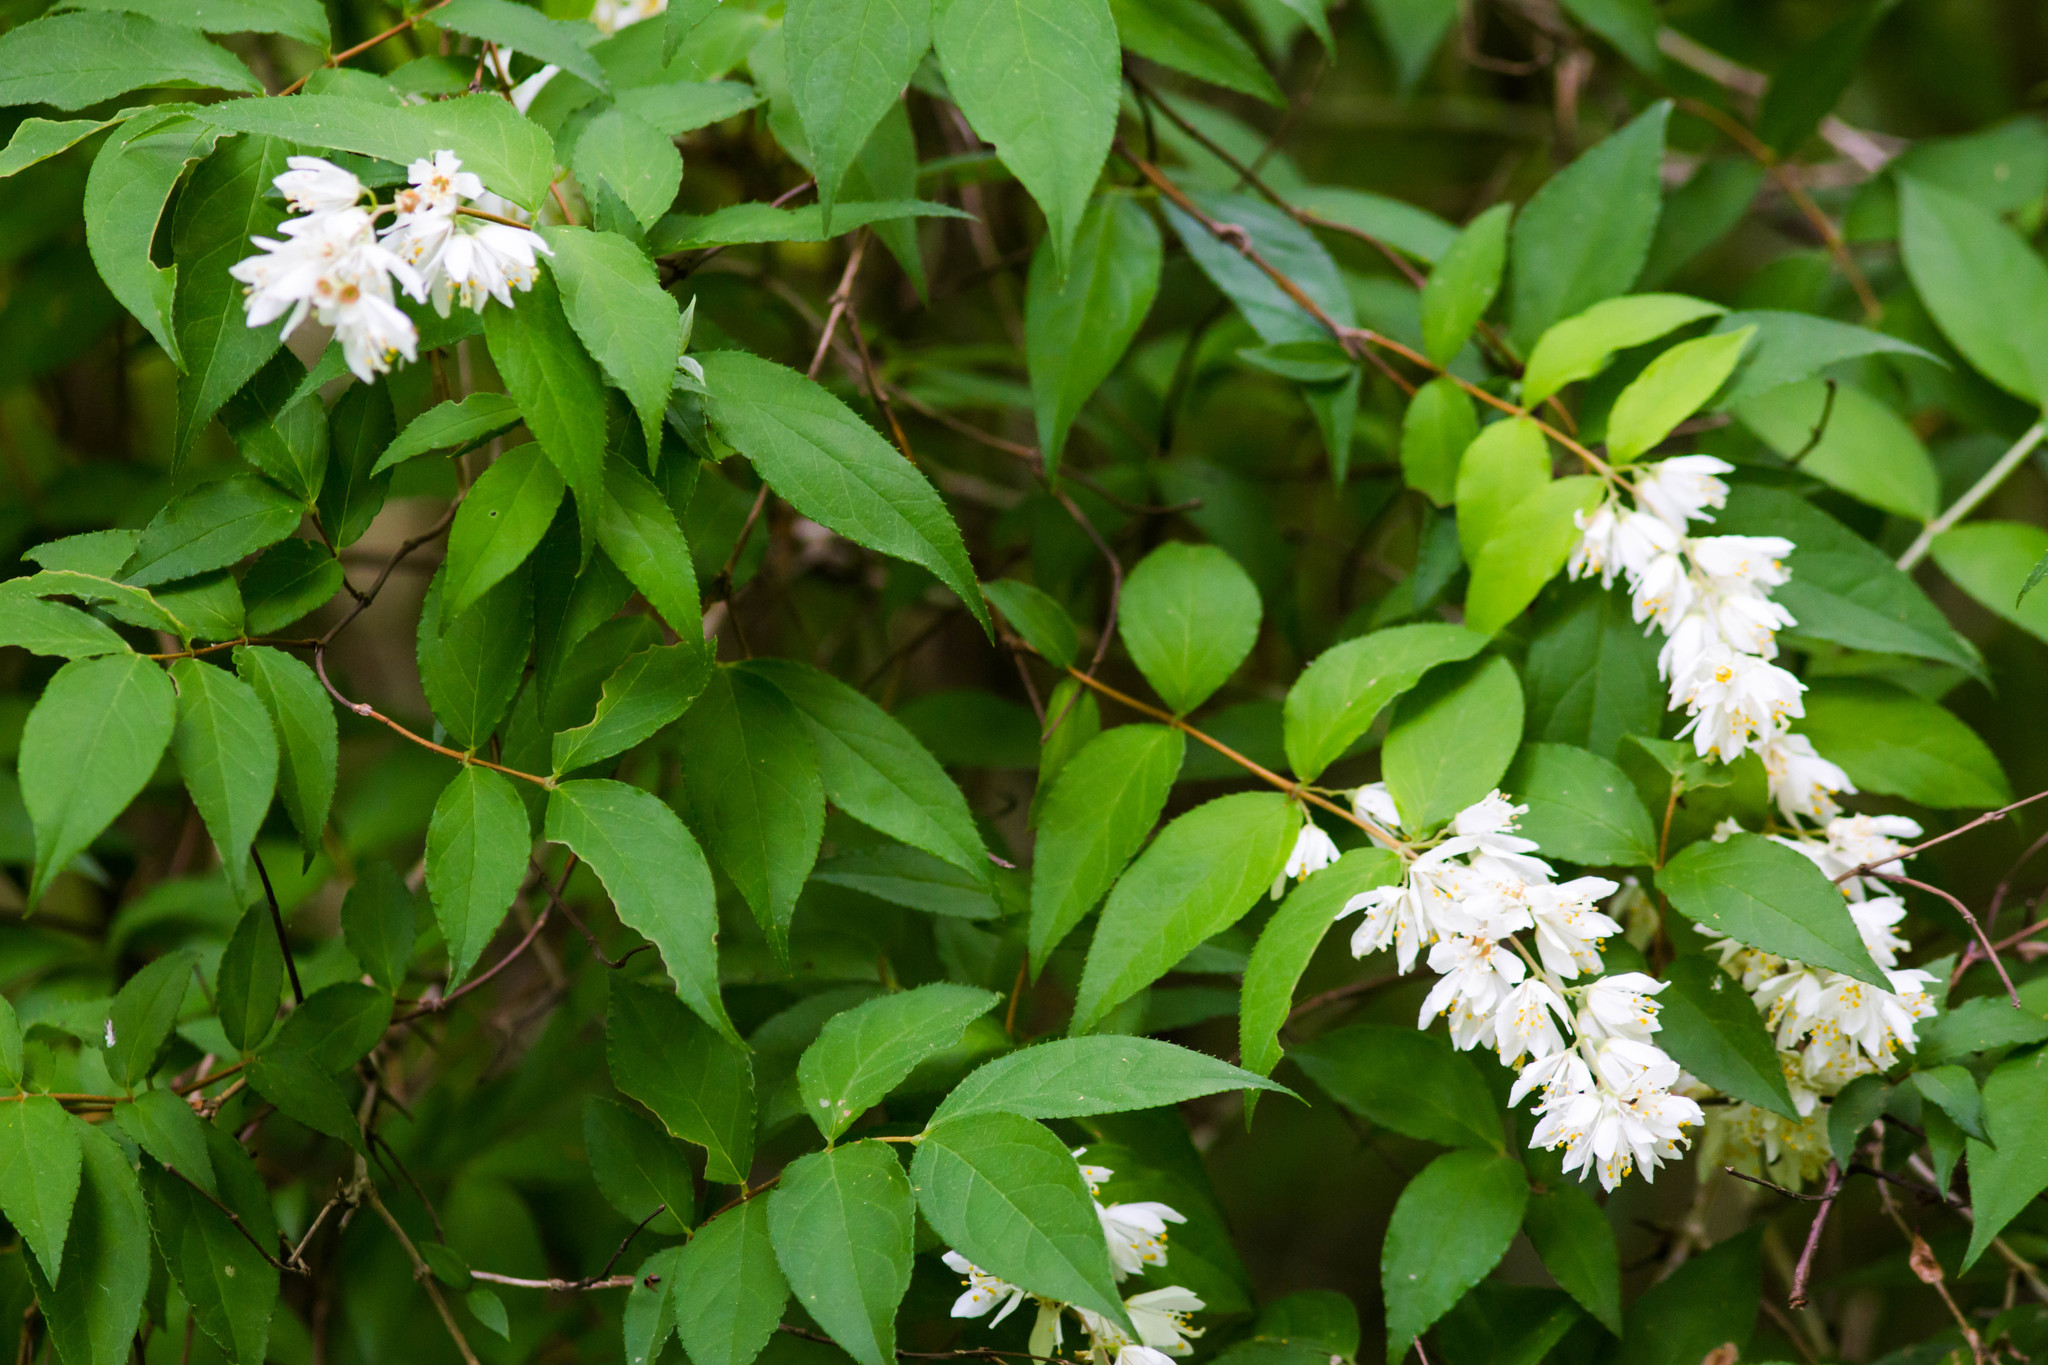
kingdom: Plantae
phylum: Tracheophyta
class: Magnoliopsida
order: Cornales
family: Hydrangeaceae
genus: Deutzia
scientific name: Deutzia crenata
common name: Deutzia
